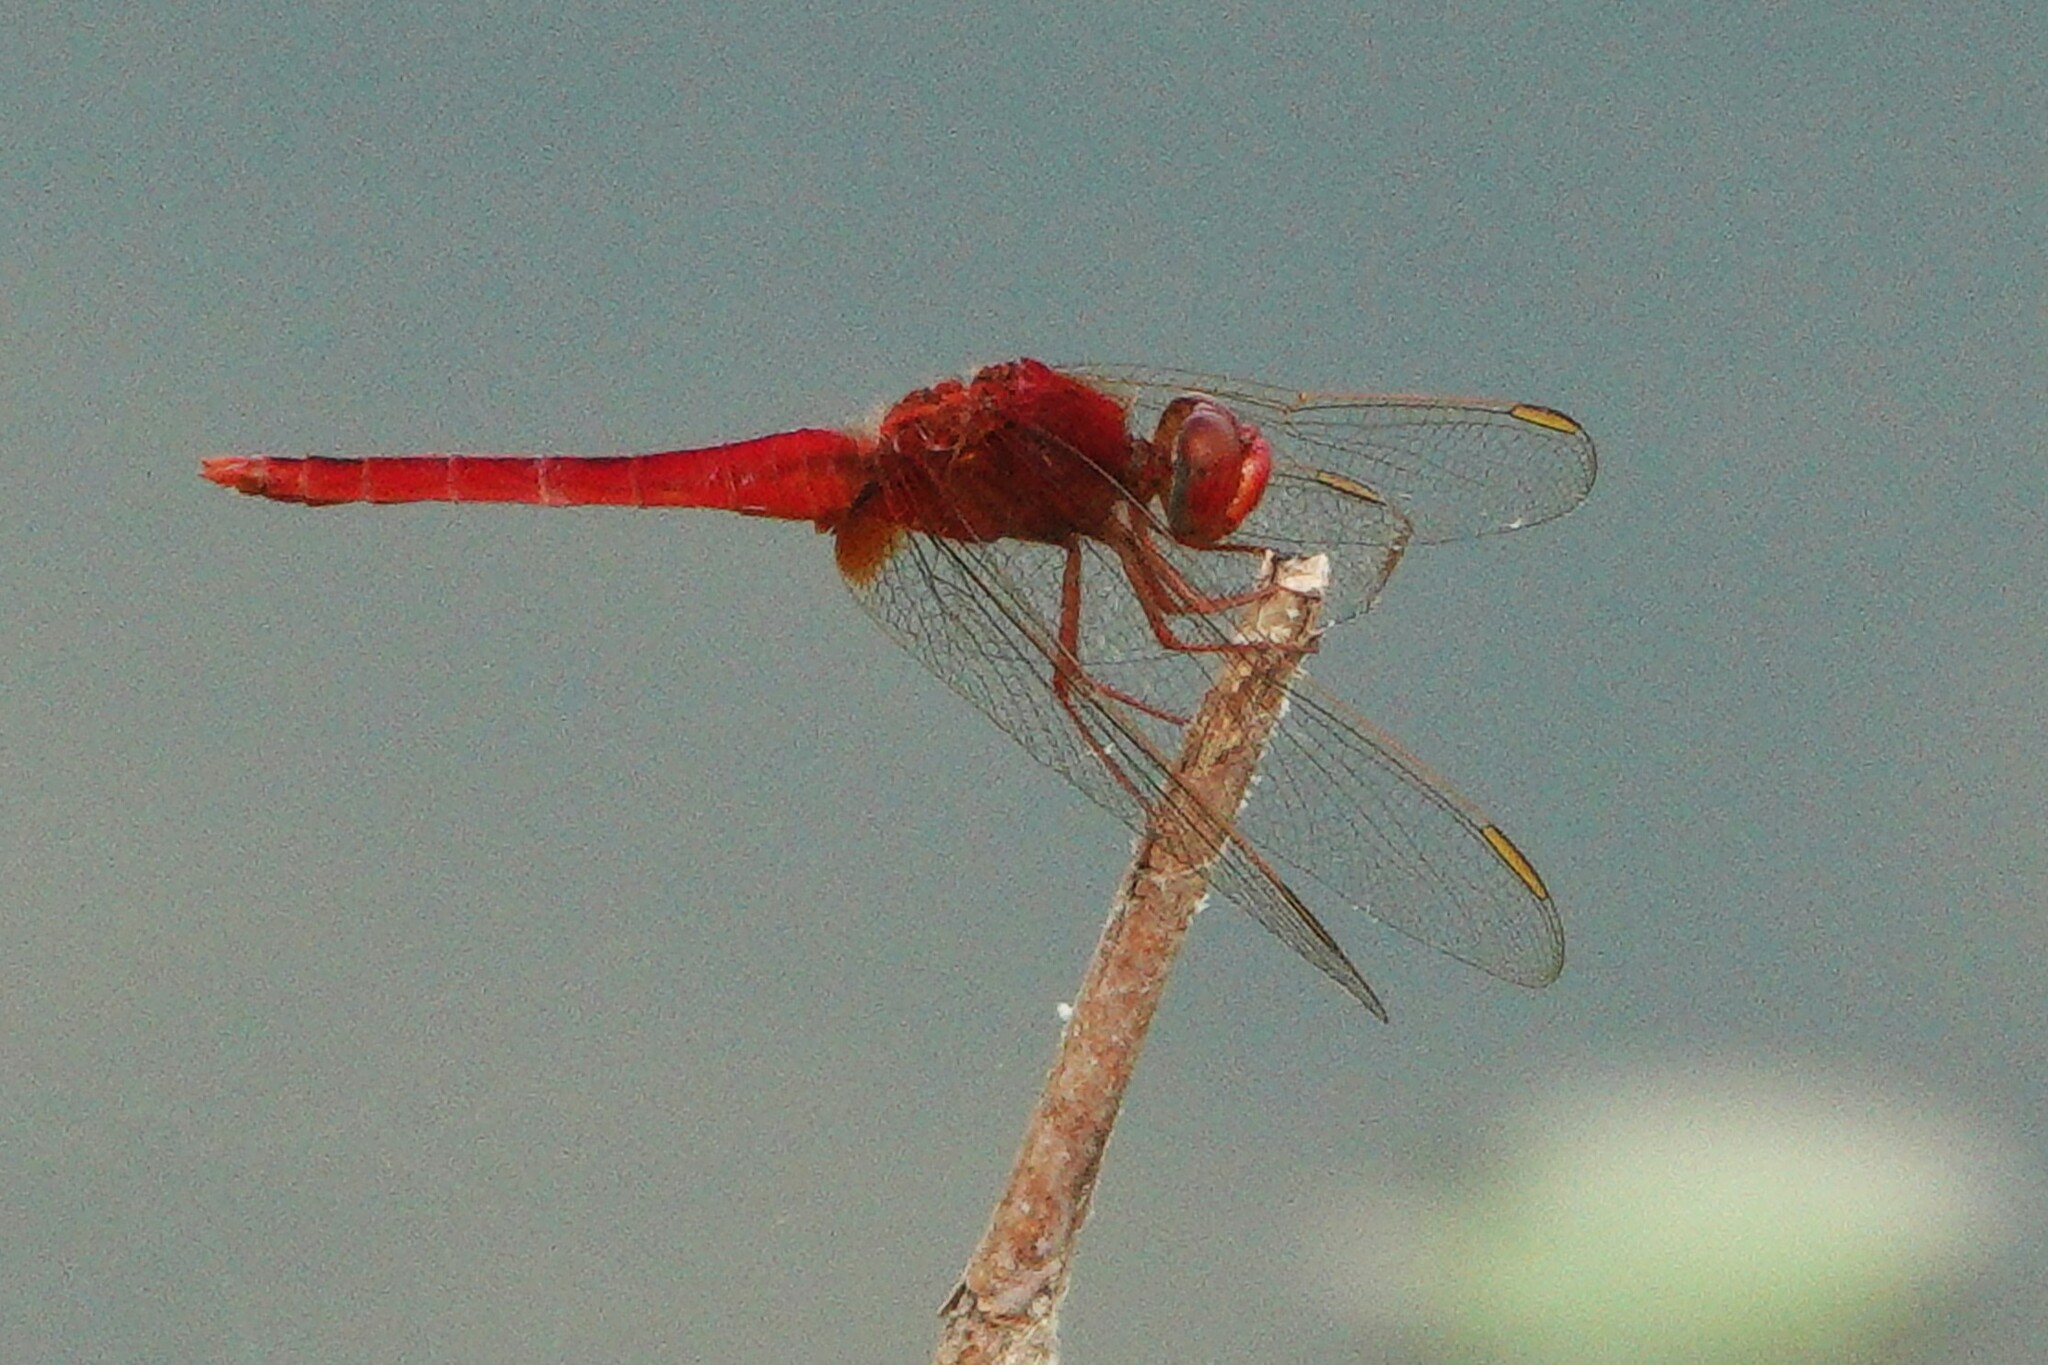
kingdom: Animalia
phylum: Arthropoda
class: Insecta
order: Odonata
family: Libellulidae
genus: Crocothemis
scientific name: Crocothemis servilia
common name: Scarlet skimmer
